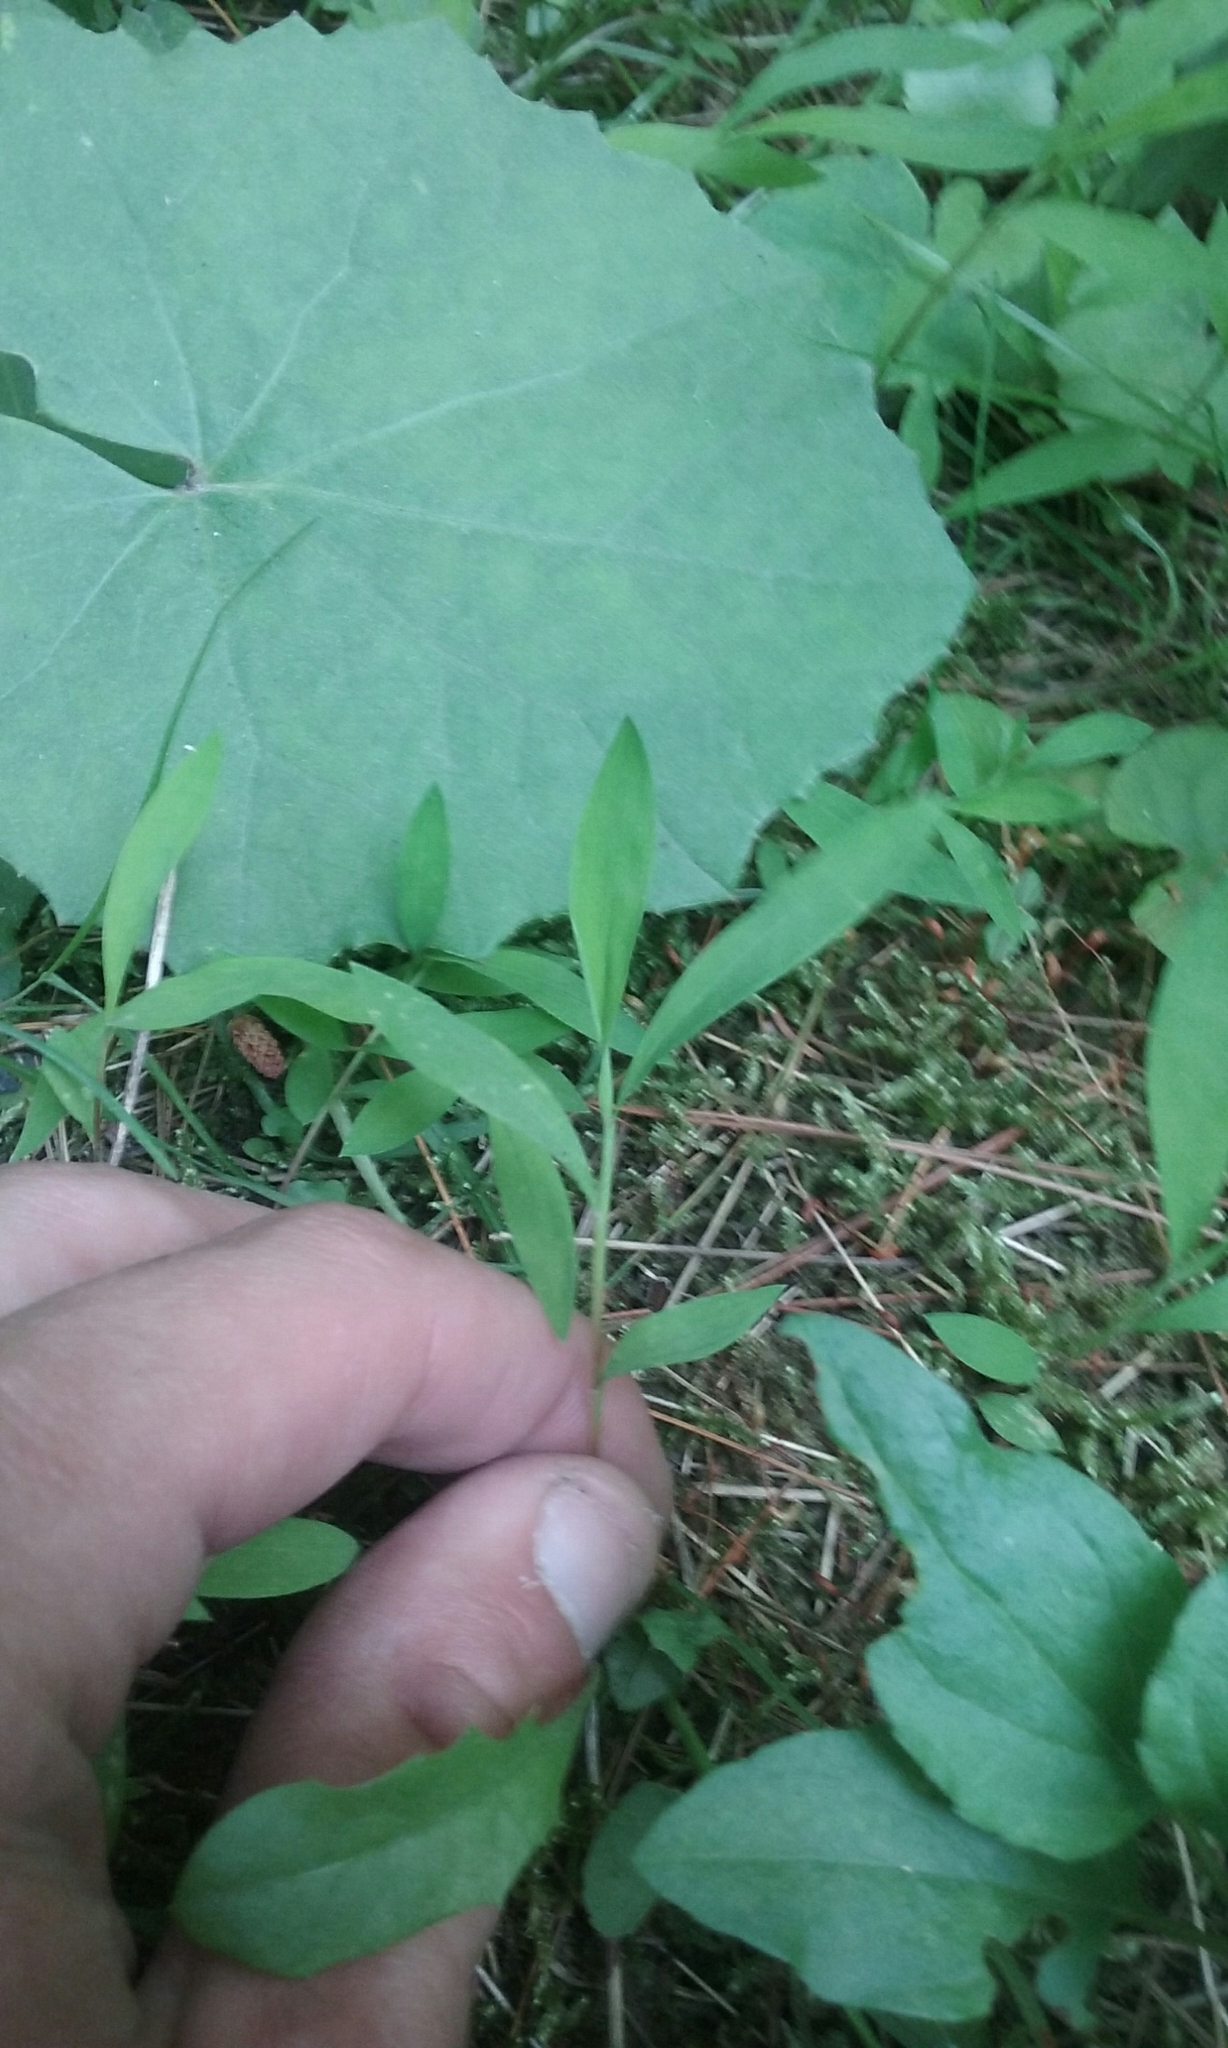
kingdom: Plantae
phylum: Tracheophyta
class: Liliopsida
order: Poales
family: Poaceae
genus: Microstegium
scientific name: Microstegium vimineum
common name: Japanese stiltgrass
